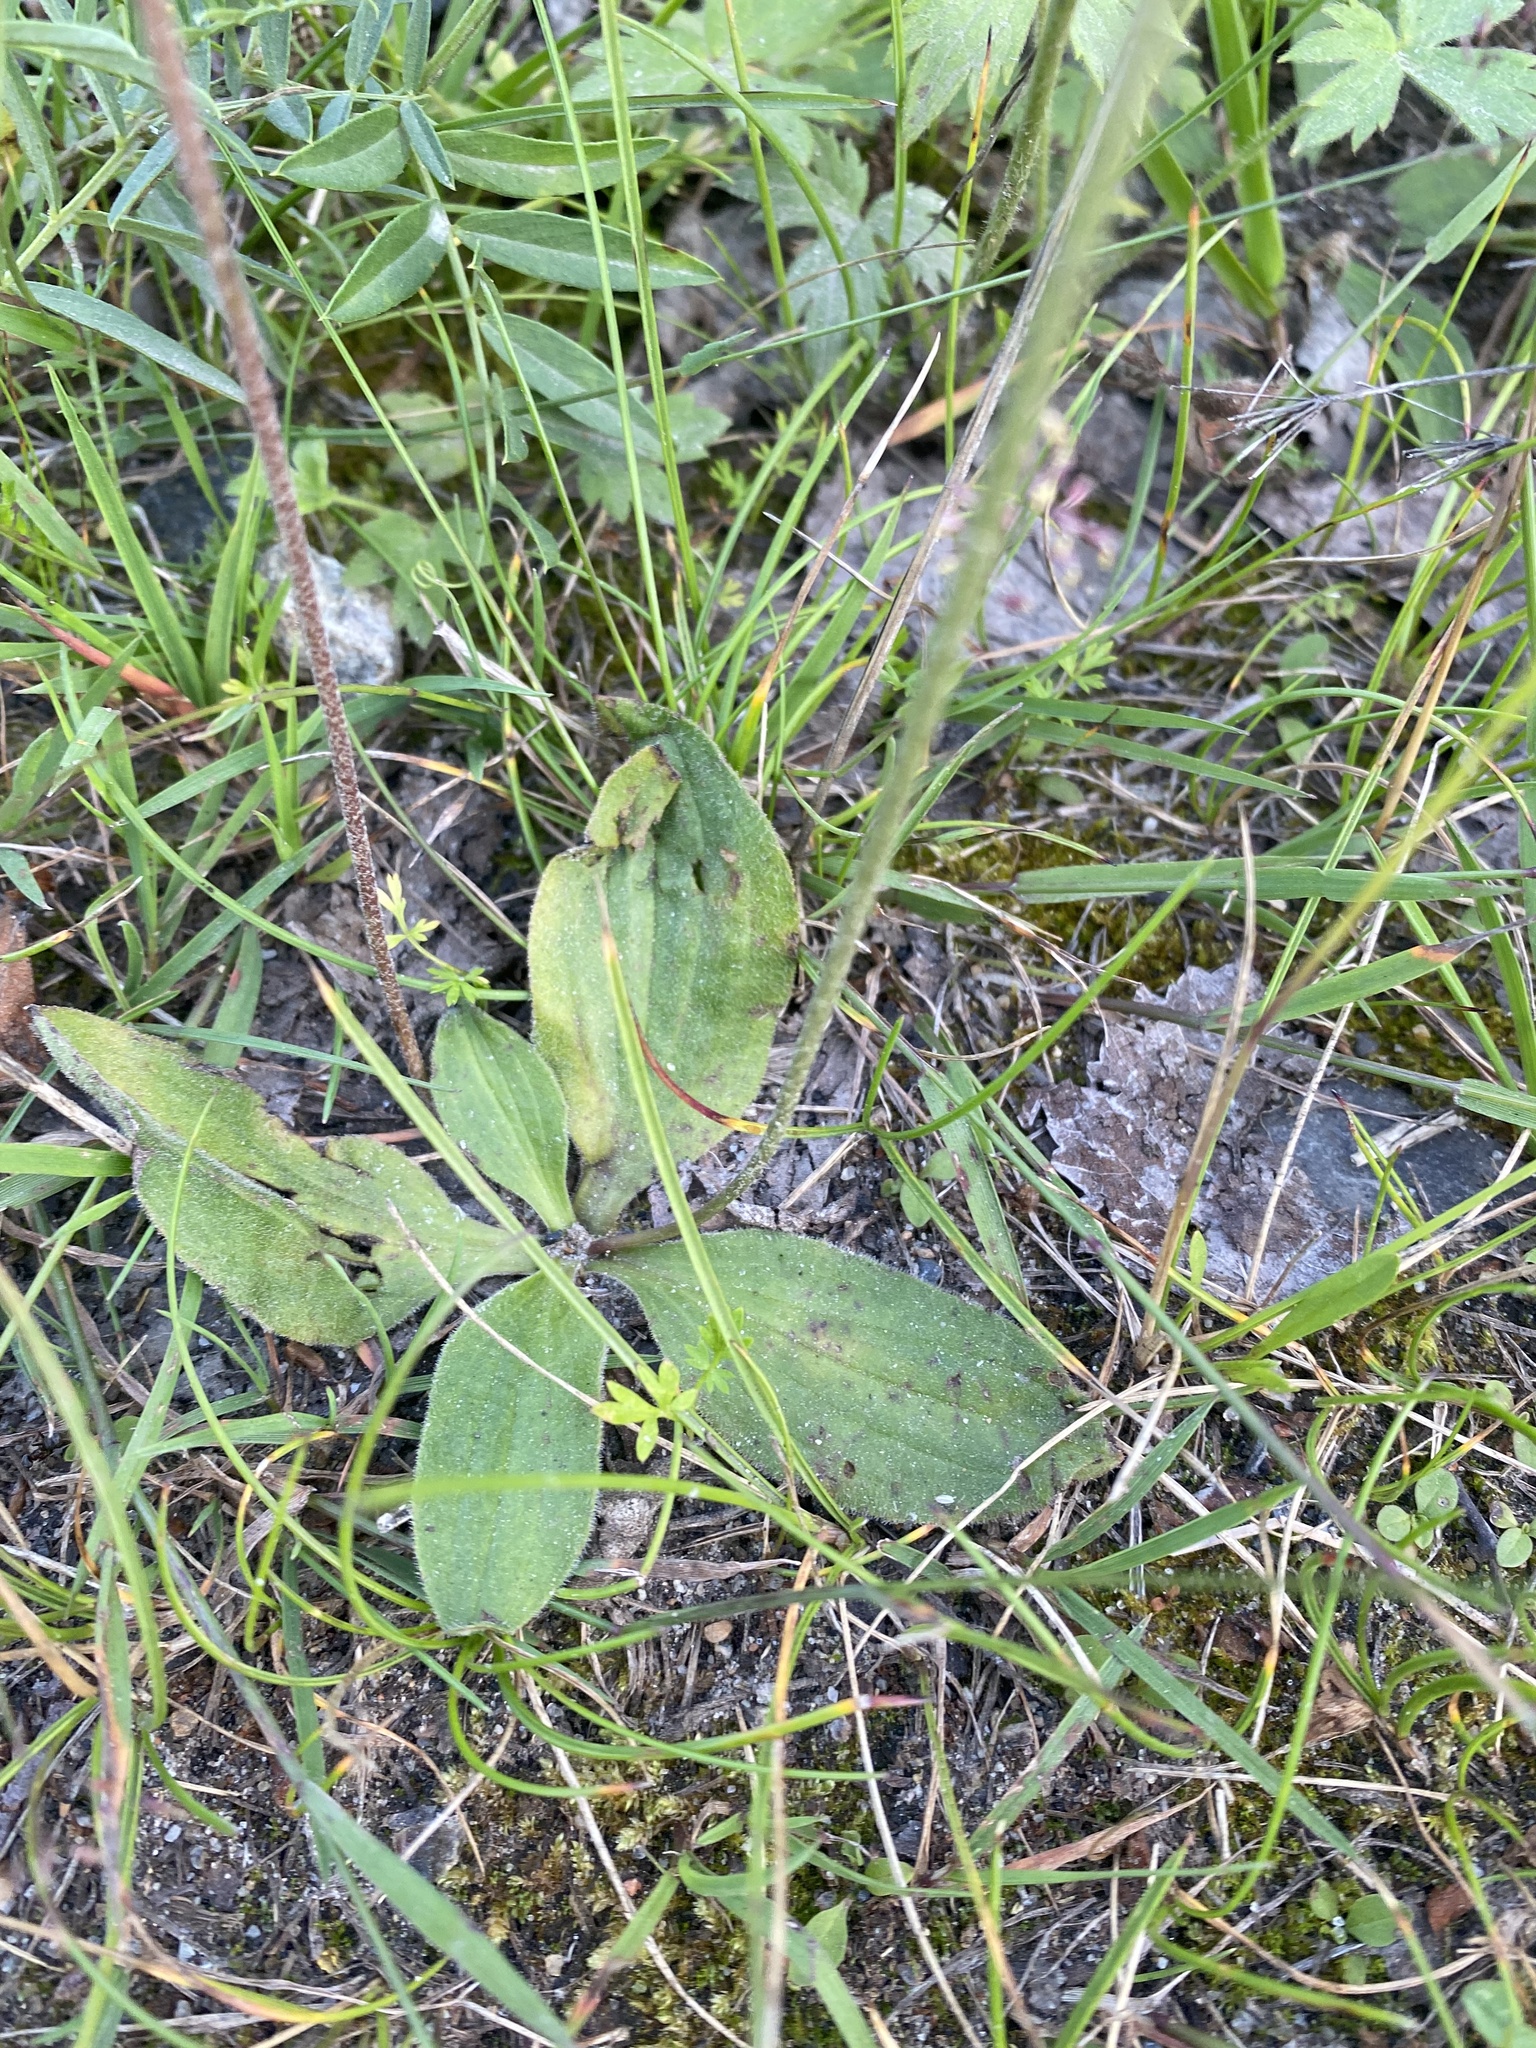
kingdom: Plantae
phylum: Tracheophyta
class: Magnoliopsida
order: Lamiales
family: Plantaginaceae
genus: Plantago
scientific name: Plantago media
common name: Hoary plantain
